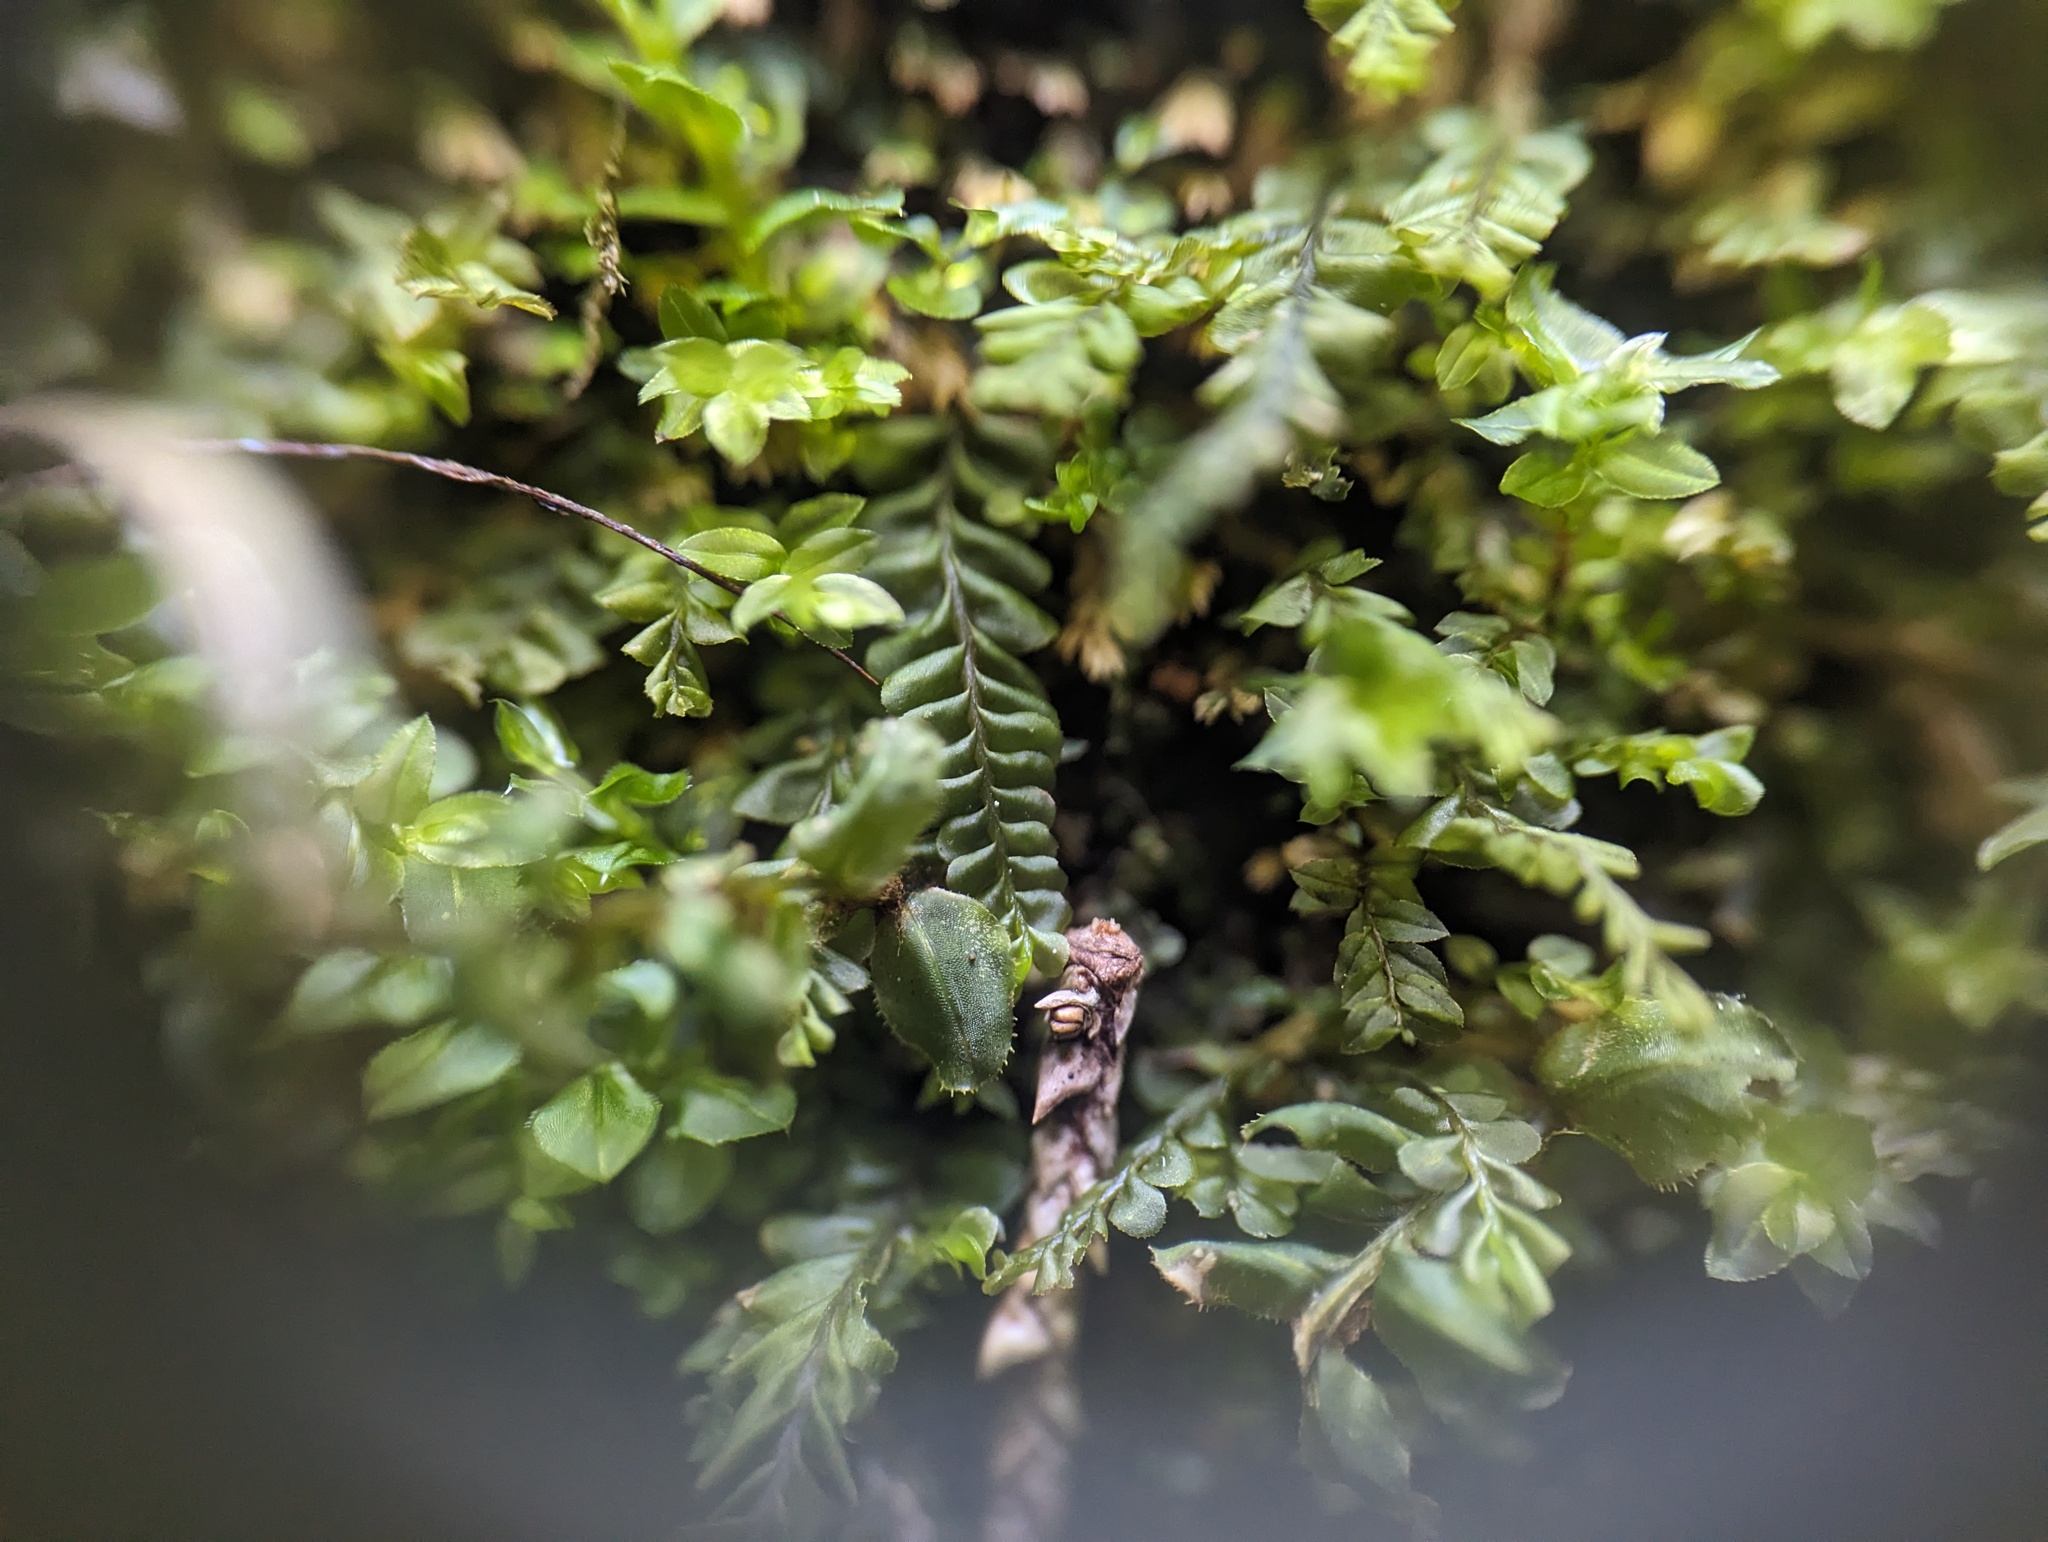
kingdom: Plantae
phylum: Marchantiophyta
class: Jungermanniopsida
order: Jungermanniales
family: Plagiochilaceae
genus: Plagiochila
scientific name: Plagiochila porelloides
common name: Lesser featherwort
